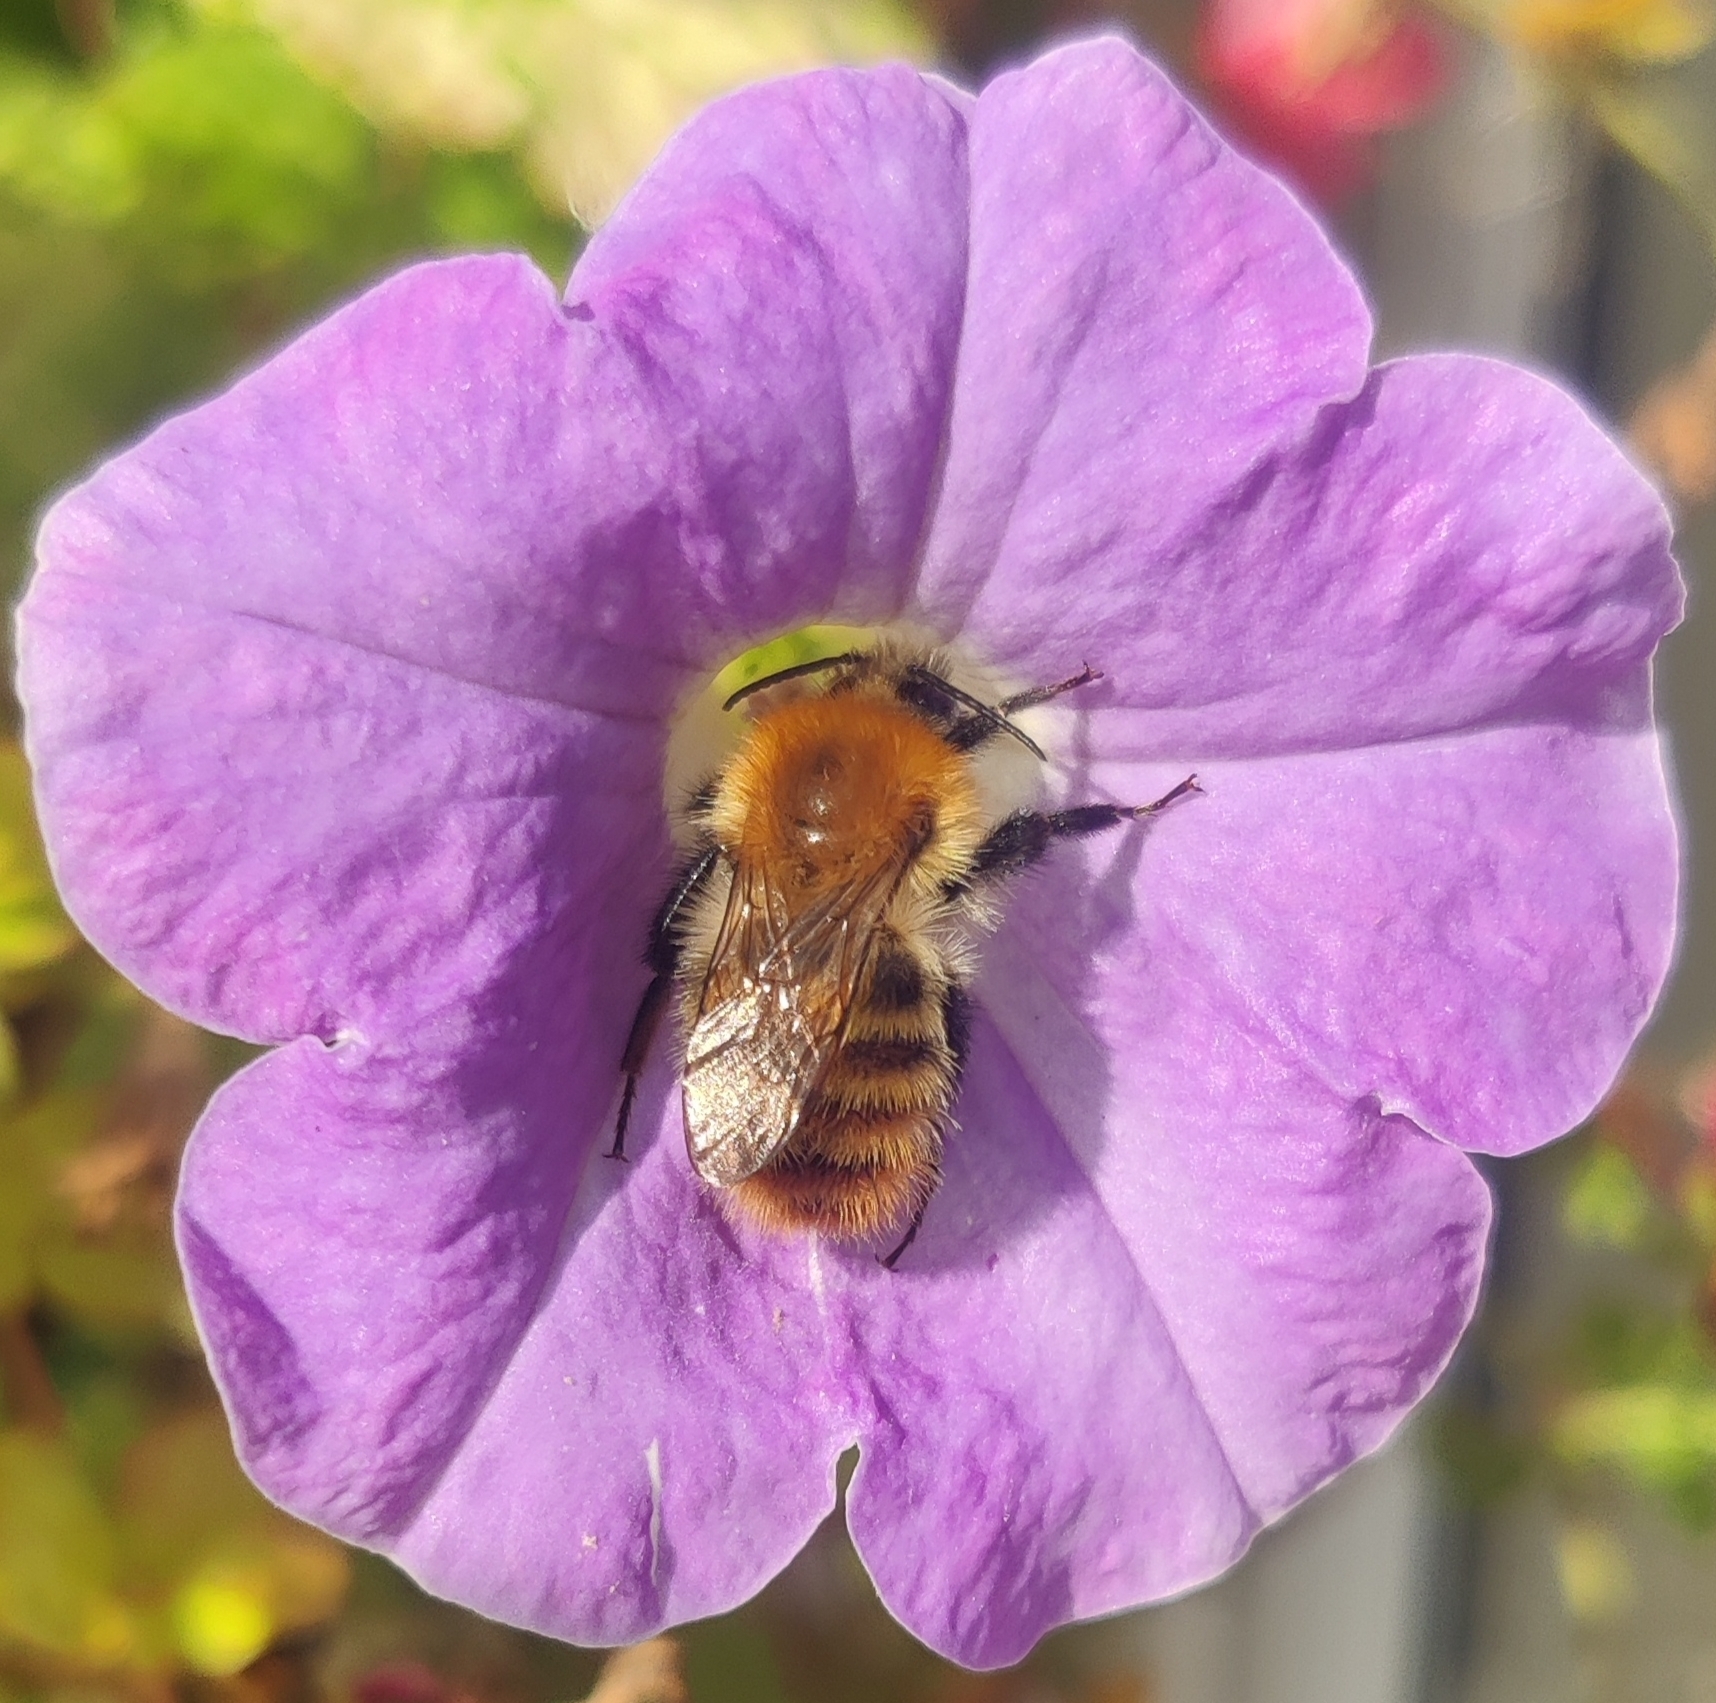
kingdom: Animalia
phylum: Arthropoda
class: Insecta
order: Hymenoptera
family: Apidae
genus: Bombus
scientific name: Bombus pascuorum
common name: Common carder bee
